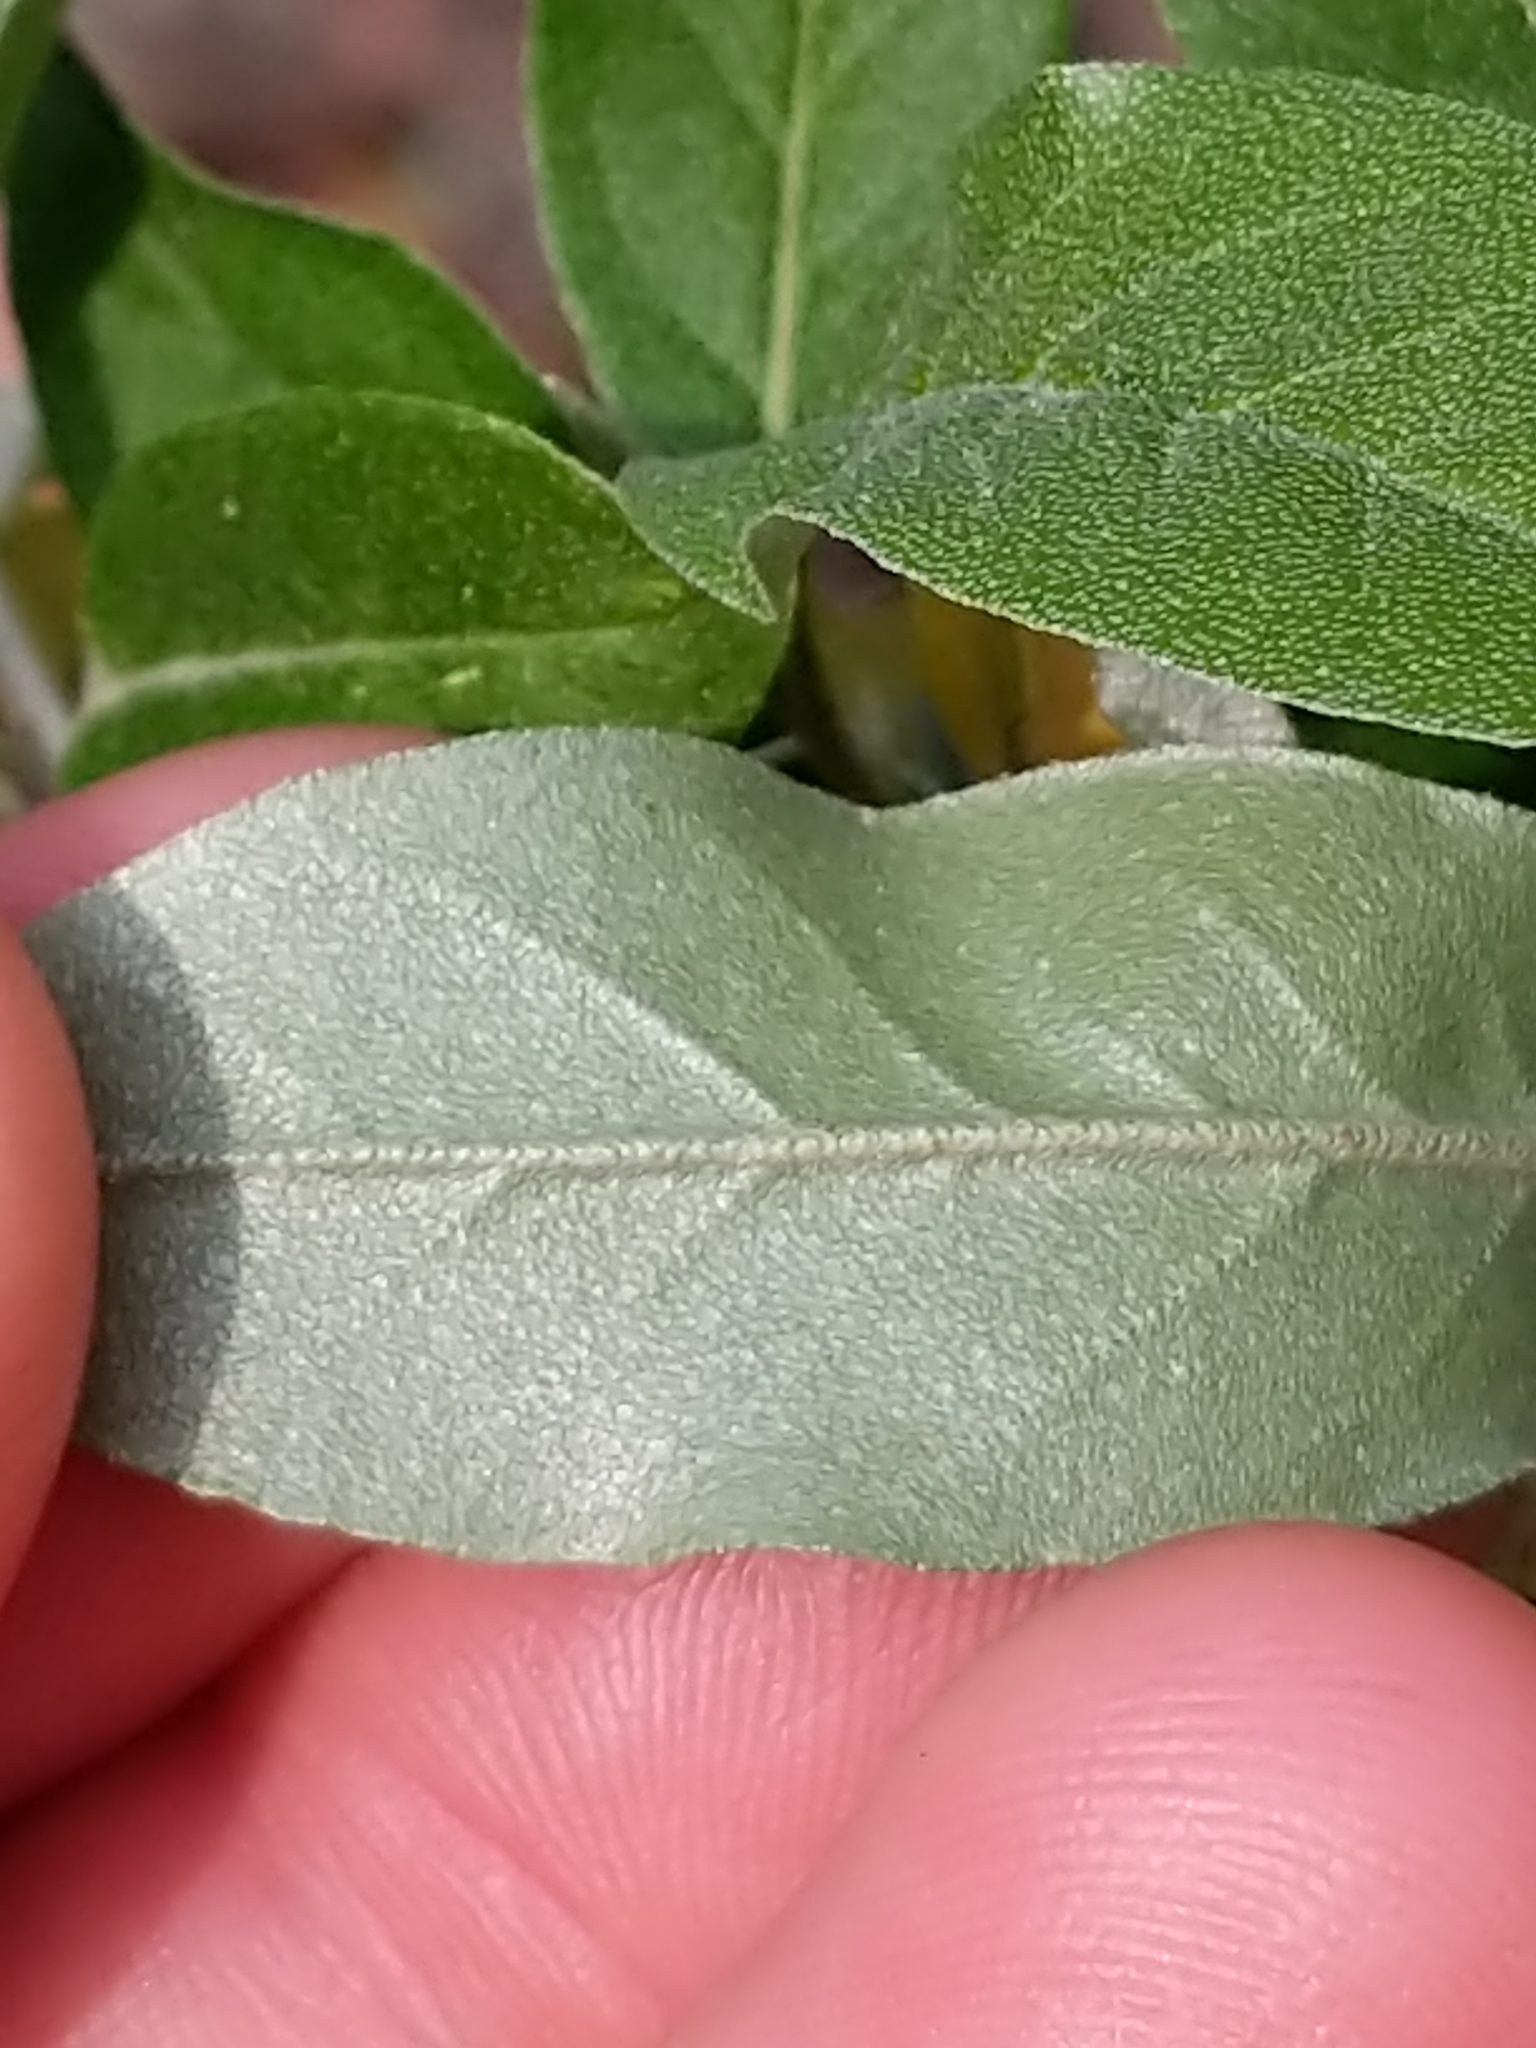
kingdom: Plantae
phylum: Tracheophyta
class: Magnoliopsida
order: Rosales
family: Elaeagnaceae
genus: Elaeagnus
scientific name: Elaeagnus umbellata
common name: Autumn olive
